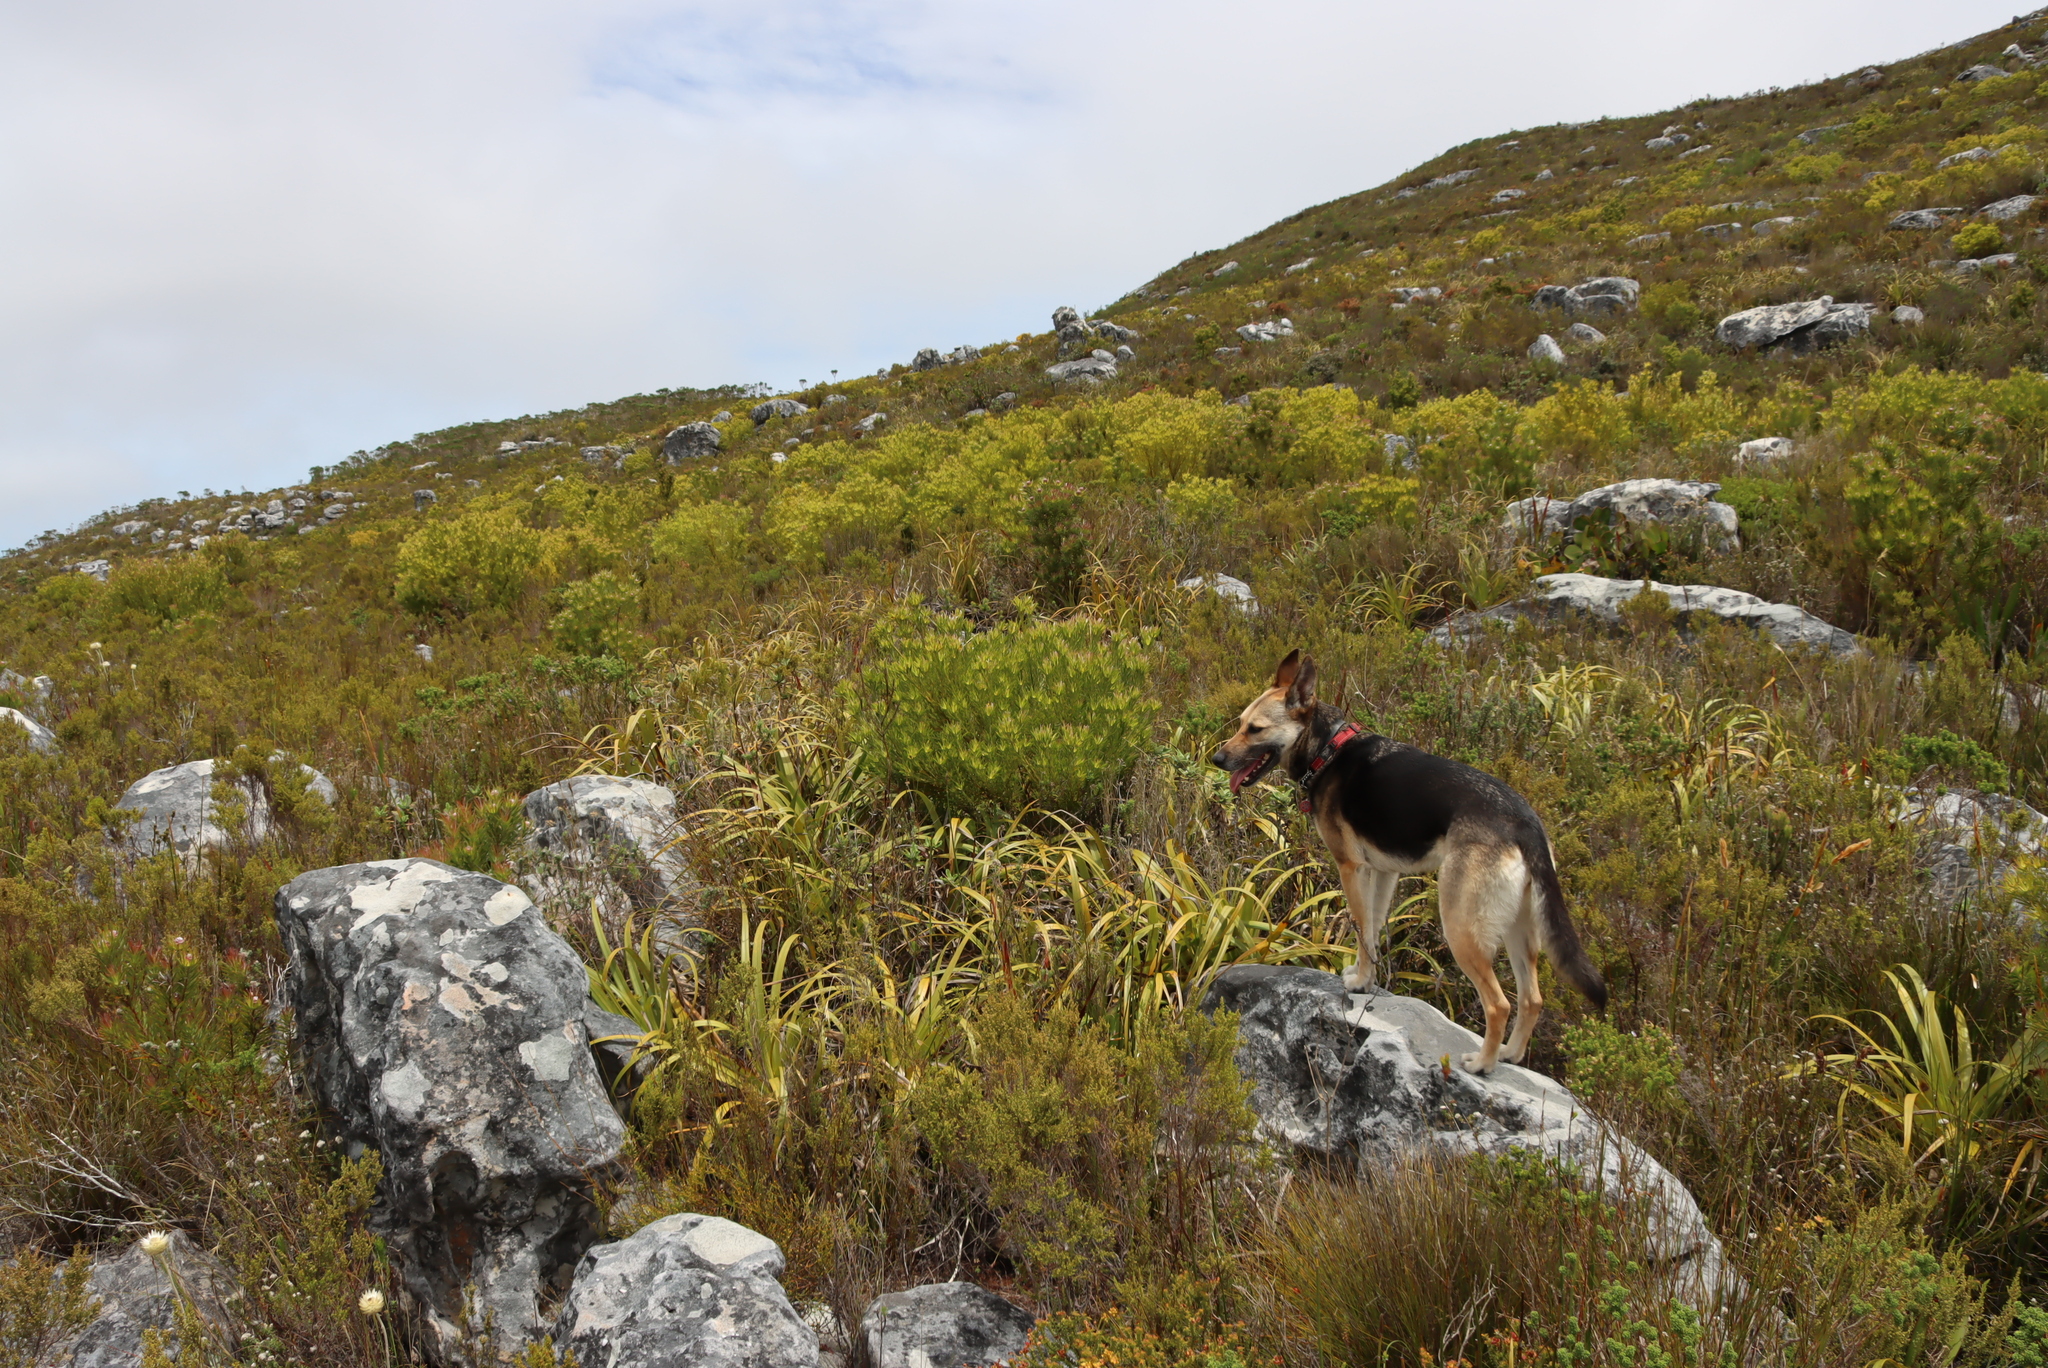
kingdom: Plantae
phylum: Tracheophyta
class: Liliopsida
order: Poales
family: Cyperaceae
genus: Tetraria
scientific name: Tetraria thermalis
